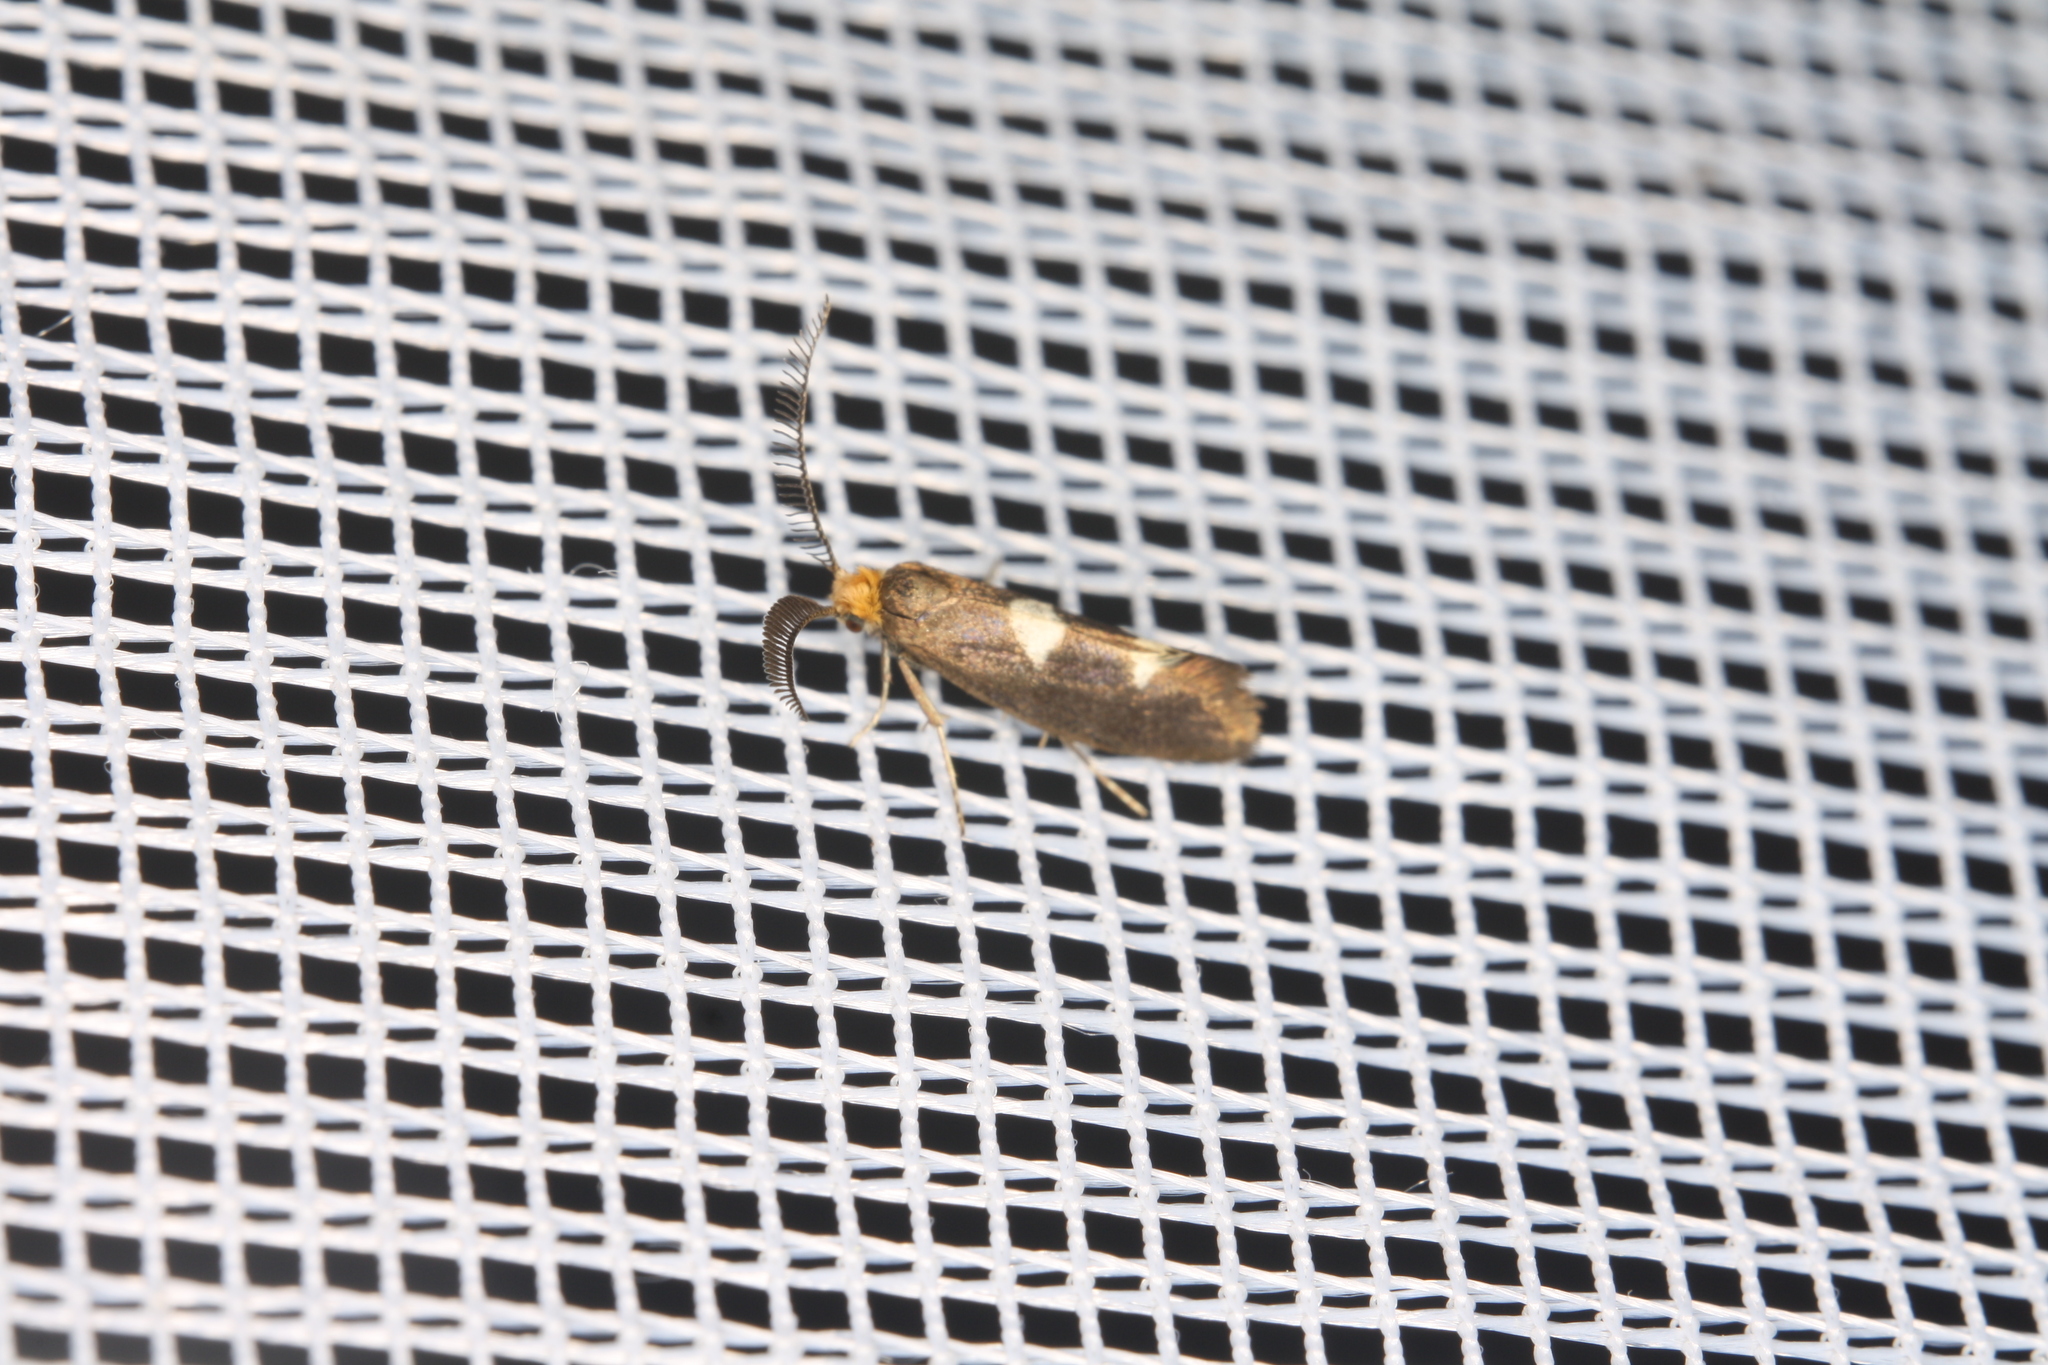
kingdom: Animalia
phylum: Arthropoda
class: Insecta
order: Lepidoptera
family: Incurvariidae
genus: Incurvaria
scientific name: Incurvaria masculella
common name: Feathered leaf-cutter
